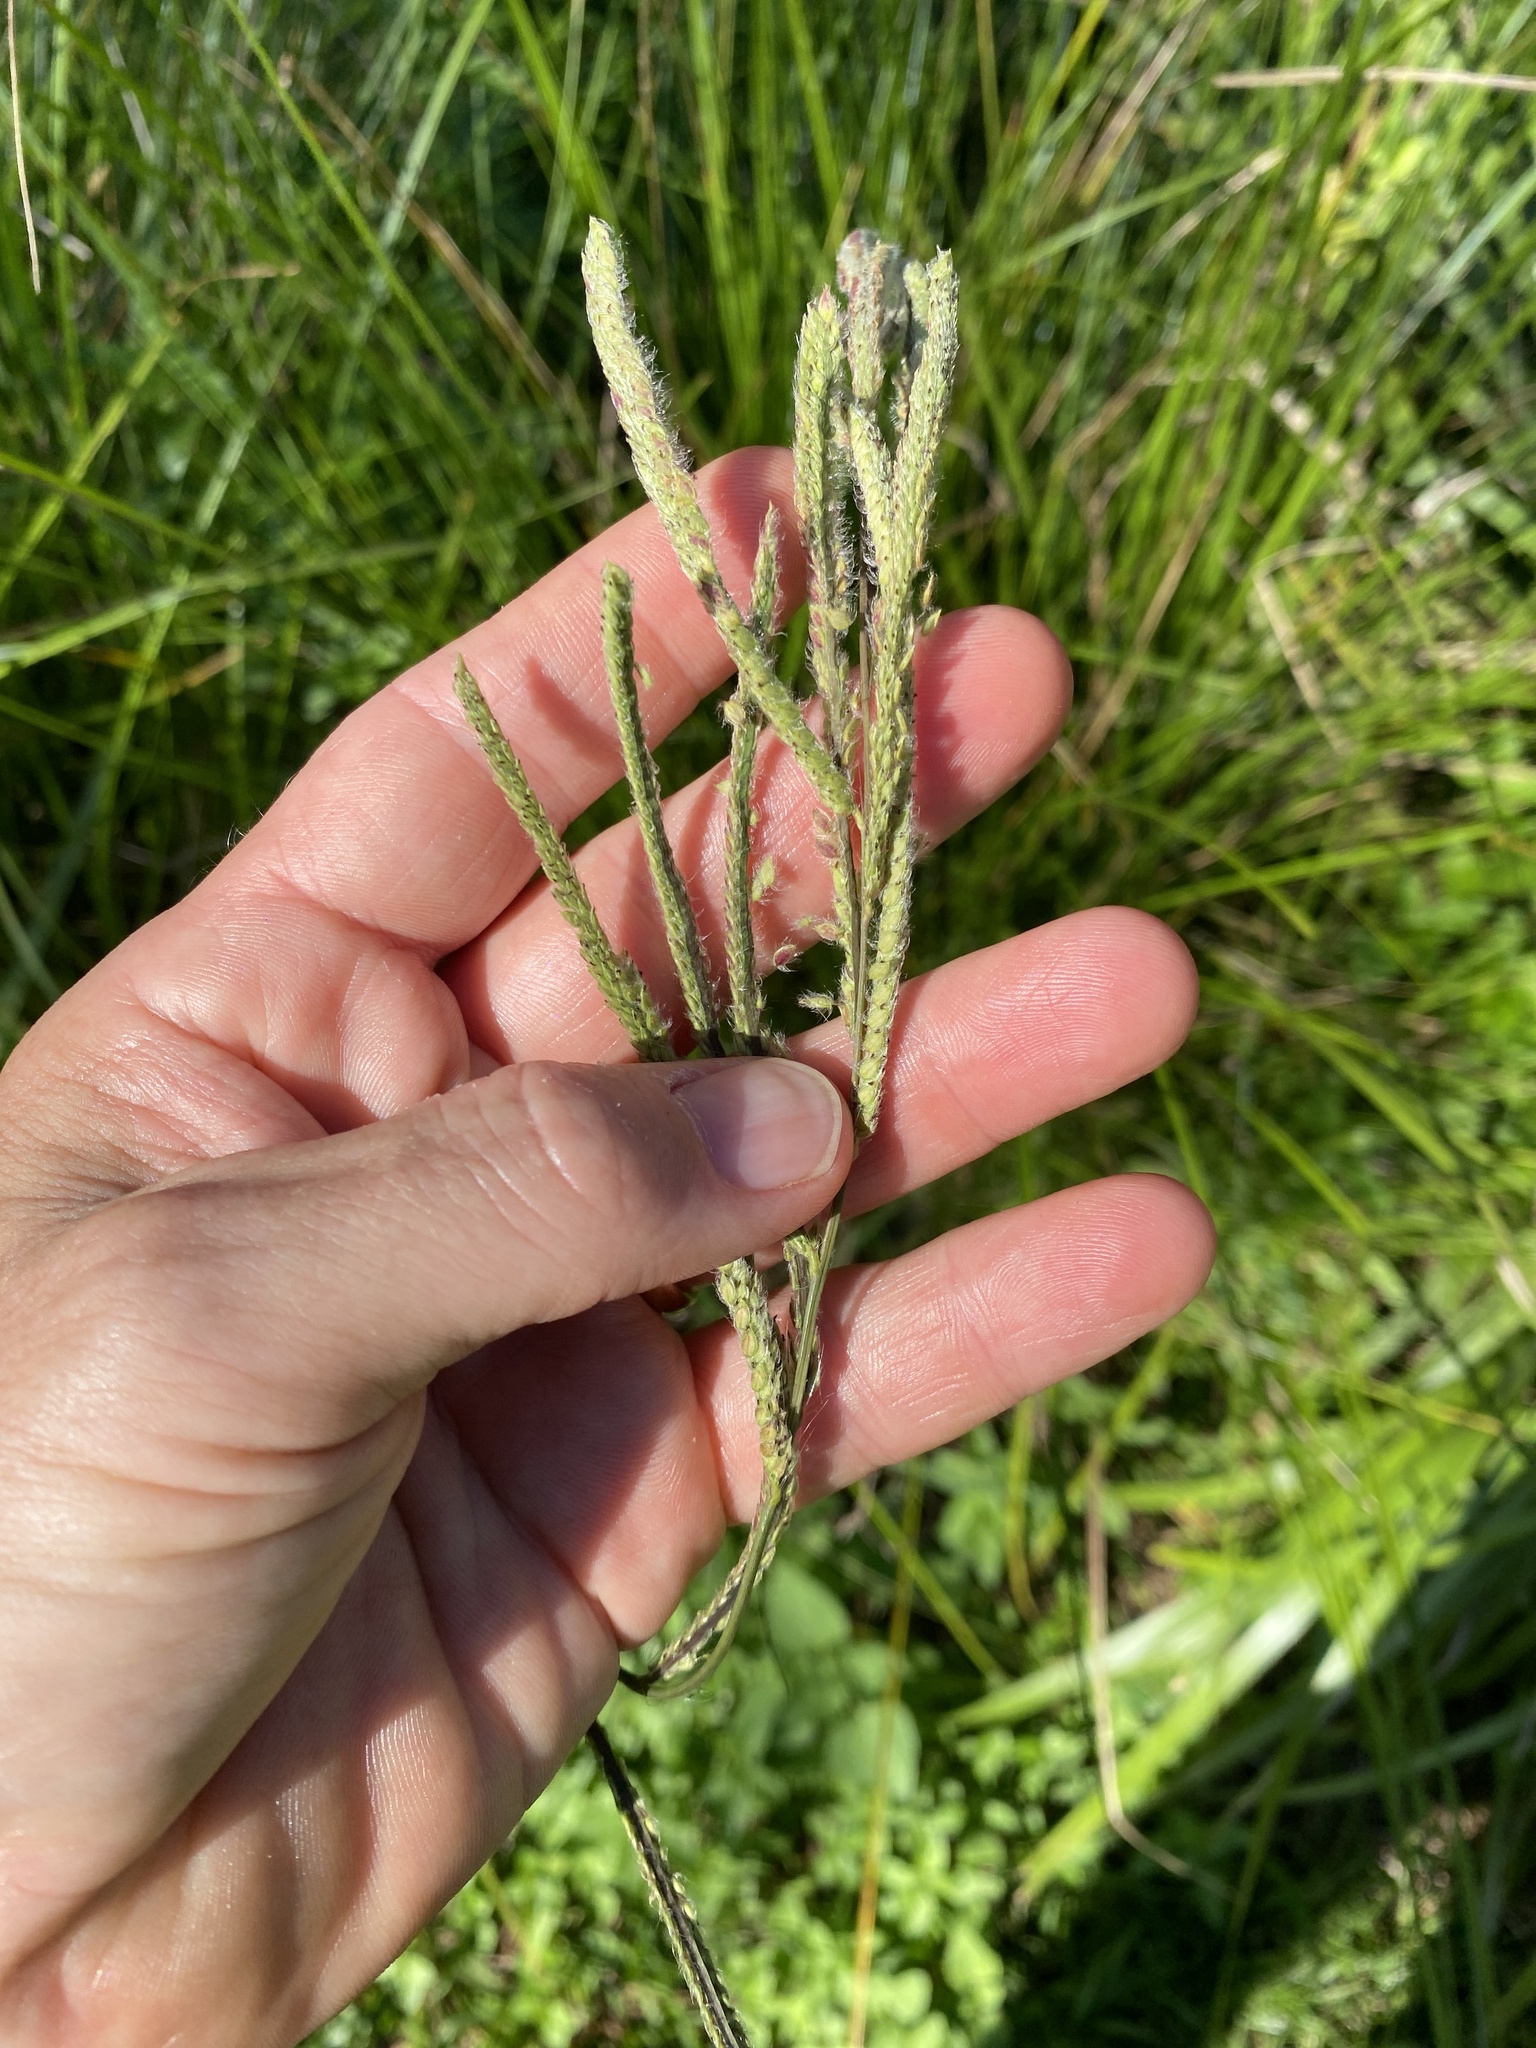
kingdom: Plantae
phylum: Tracheophyta
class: Liliopsida
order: Poales
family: Poaceae
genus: Paspalum
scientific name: Paspalum urvillei
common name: Vasey's grass
